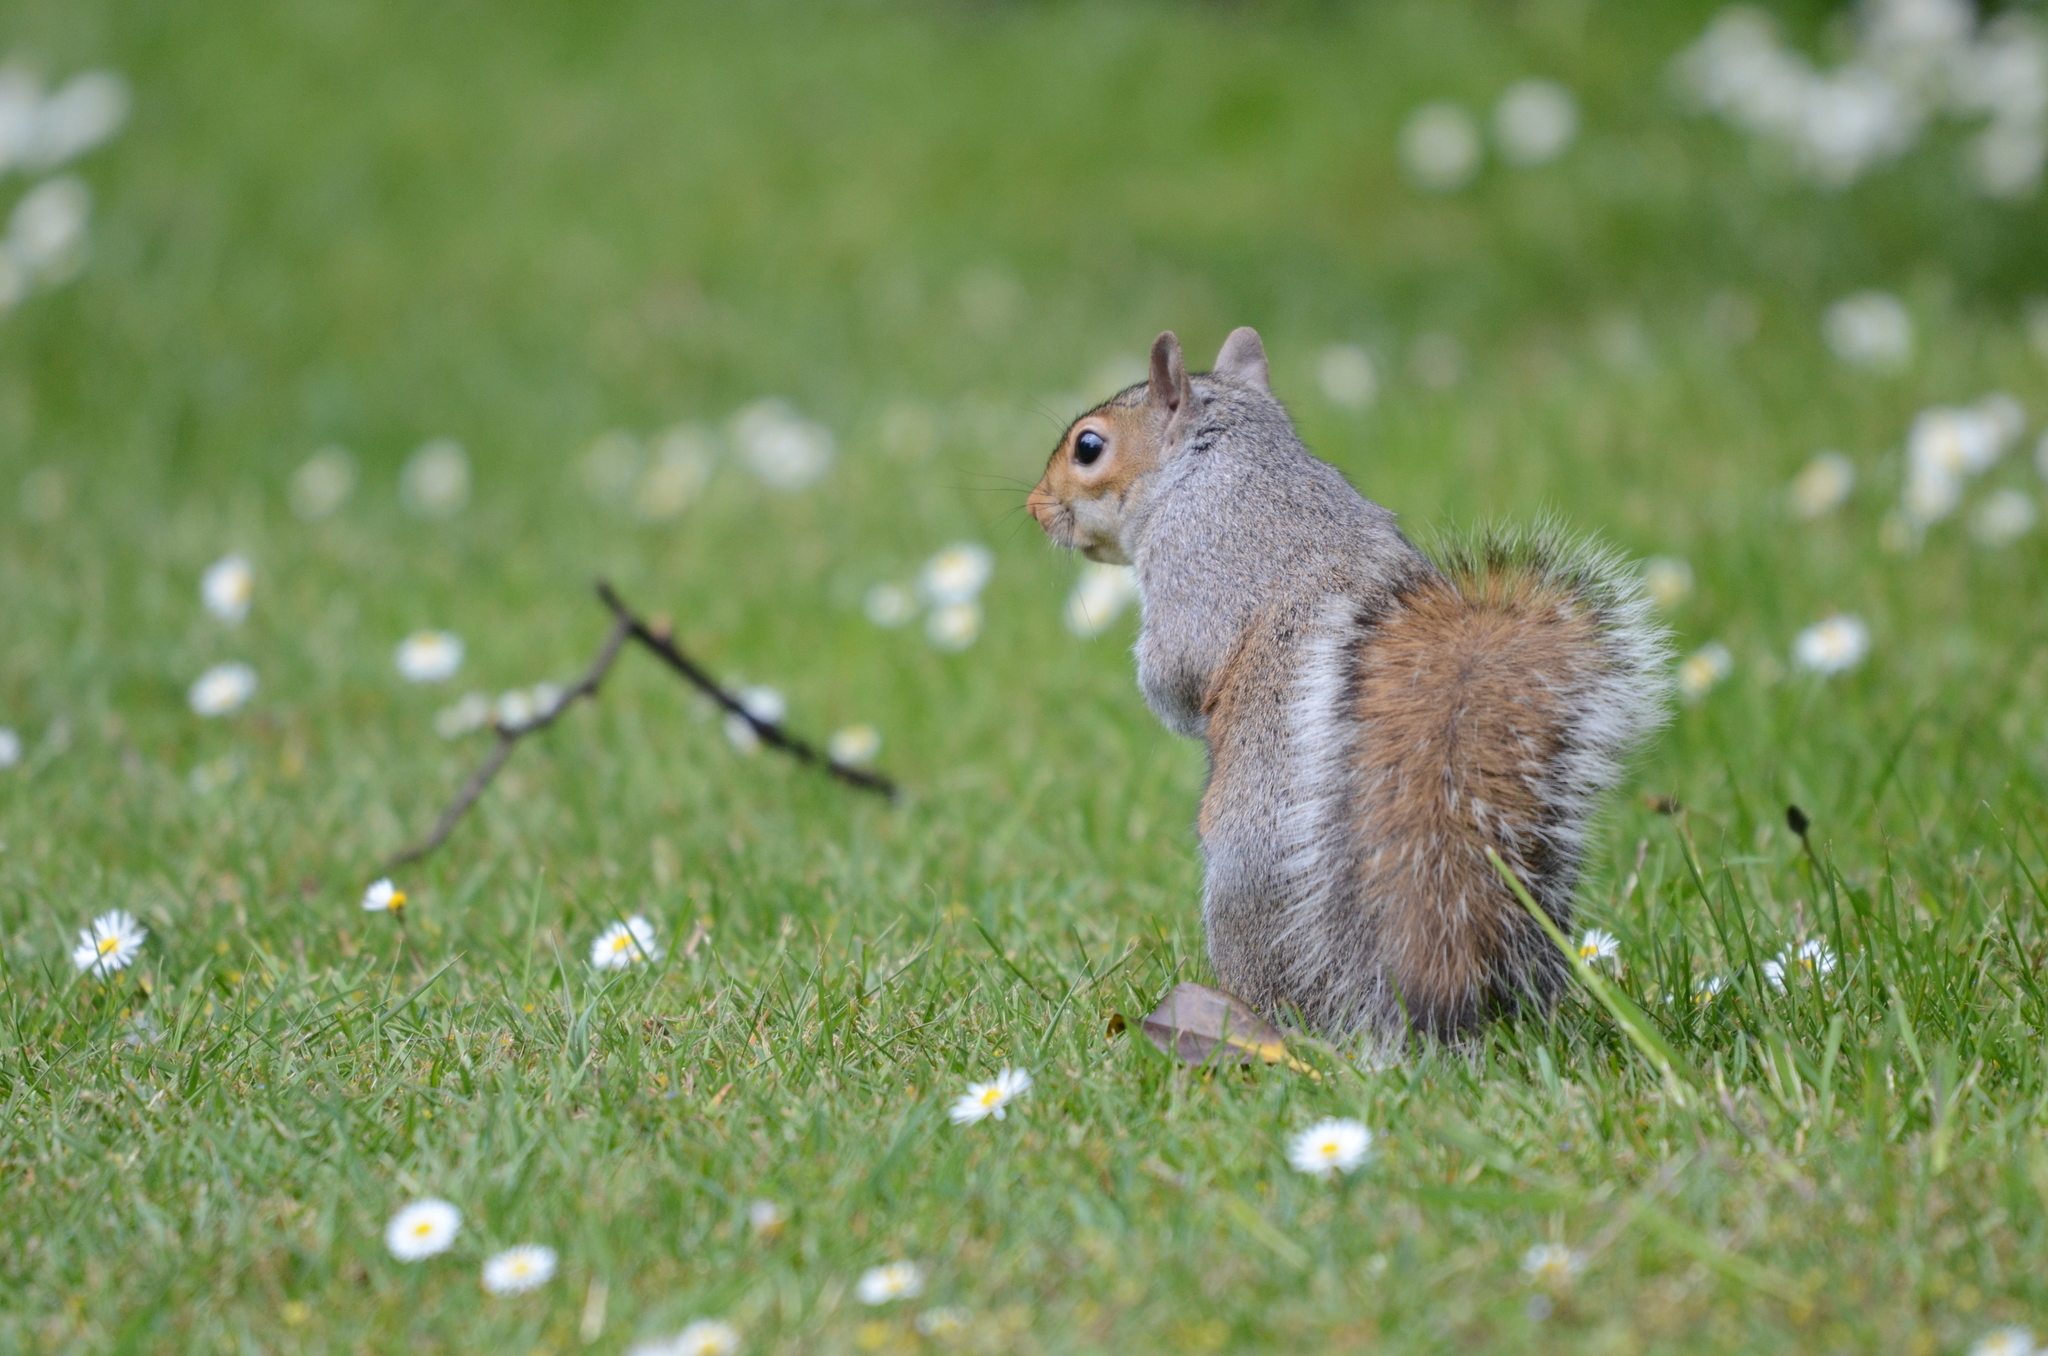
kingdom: Animalia
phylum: Chordata
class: Mammalia
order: Rodentia
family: Sciuridae
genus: Sciurus
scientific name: Sciurus carolinensis
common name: Eastern gray squirrel
